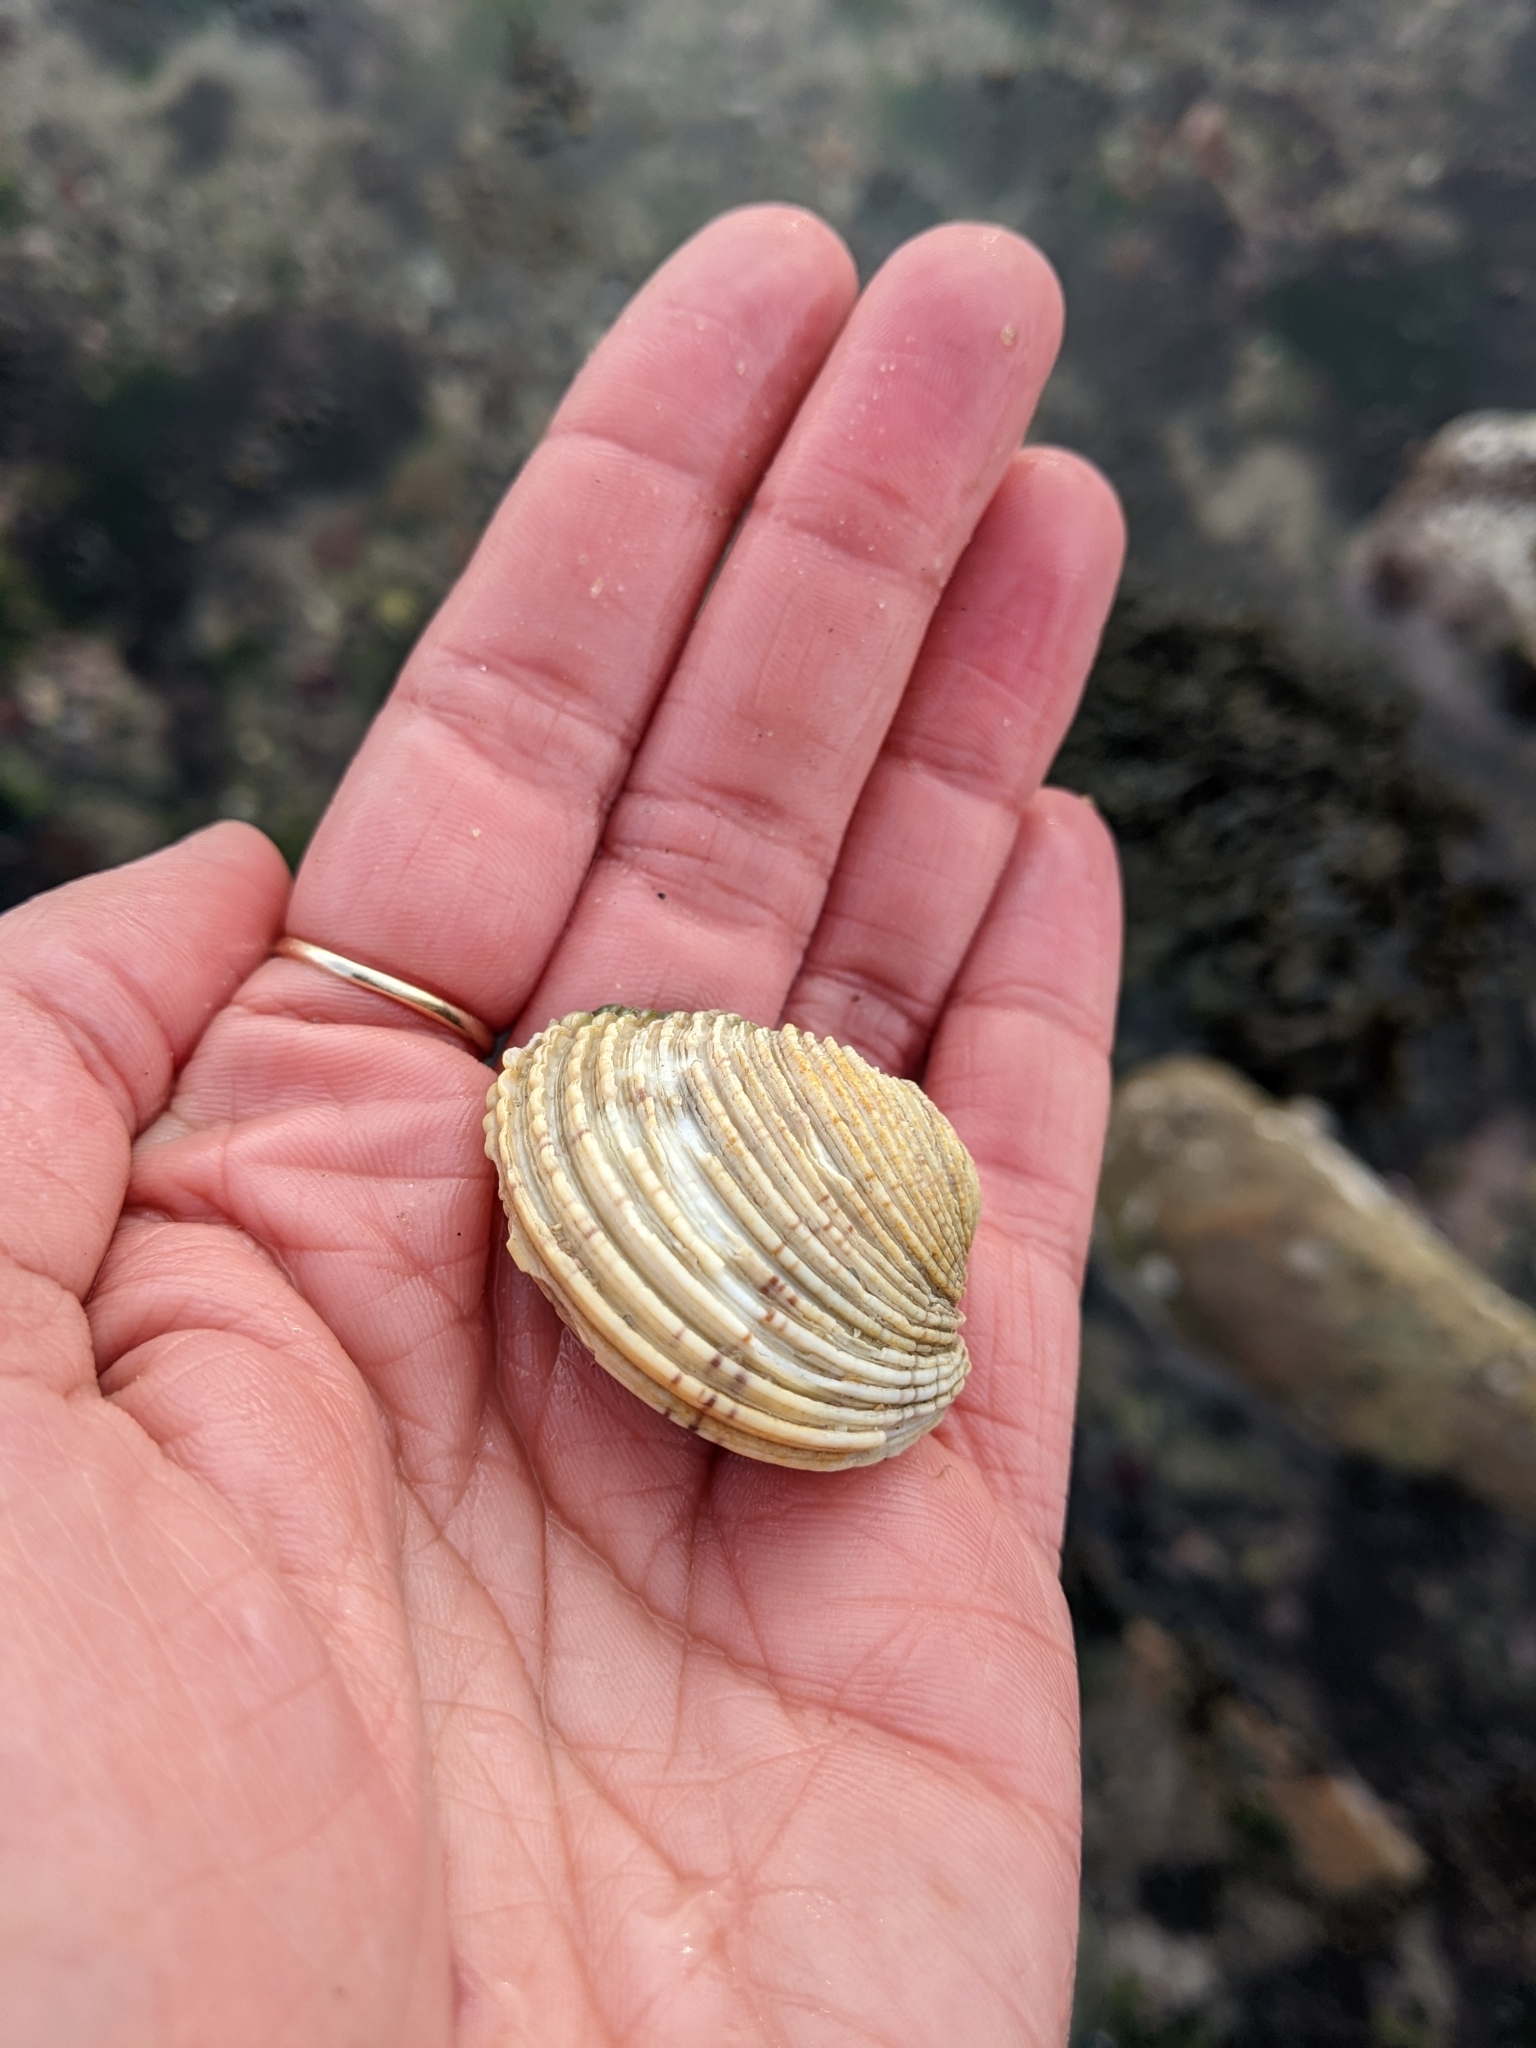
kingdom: Animalia
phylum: Mollusca
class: Bivalvia
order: Venerida
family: Veneridae
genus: Venus
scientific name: Venus verrucosa
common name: Warty venus
